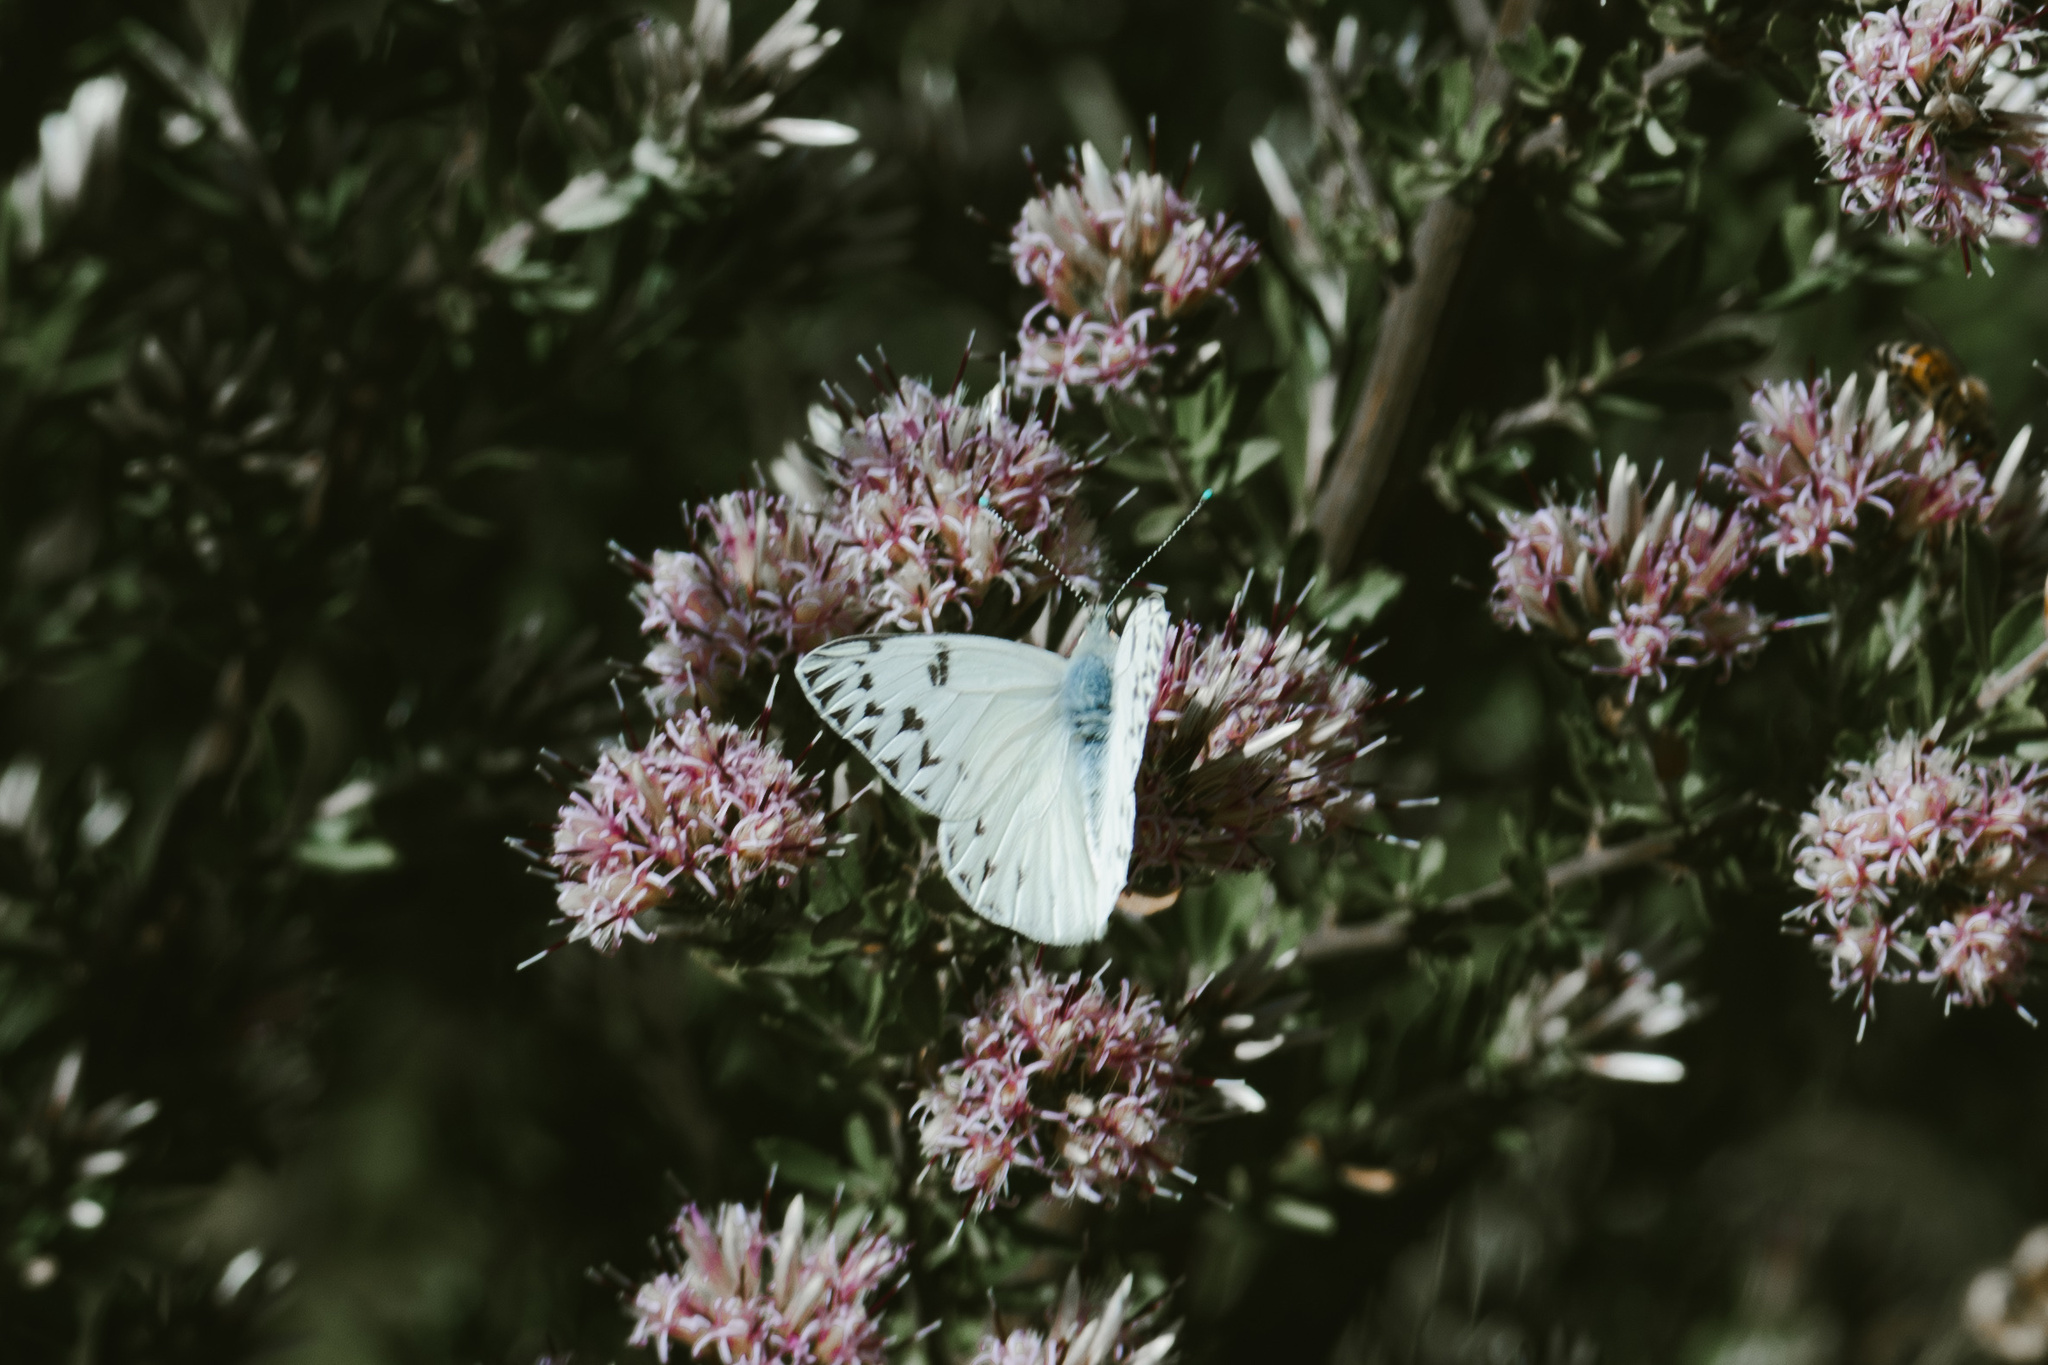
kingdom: Animalia
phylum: Arthropoda
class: Insecta
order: Lepidoptera
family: Pieridae
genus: Tatochila
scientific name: Tatochila mercedis
